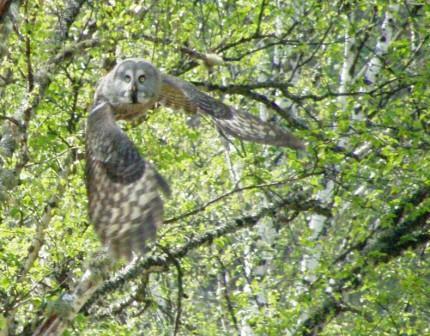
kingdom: Animalia
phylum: Chordata
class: Aves
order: Strigiformes
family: Strigidae
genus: Strix
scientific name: Strix nebulosa
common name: Great grey owl
